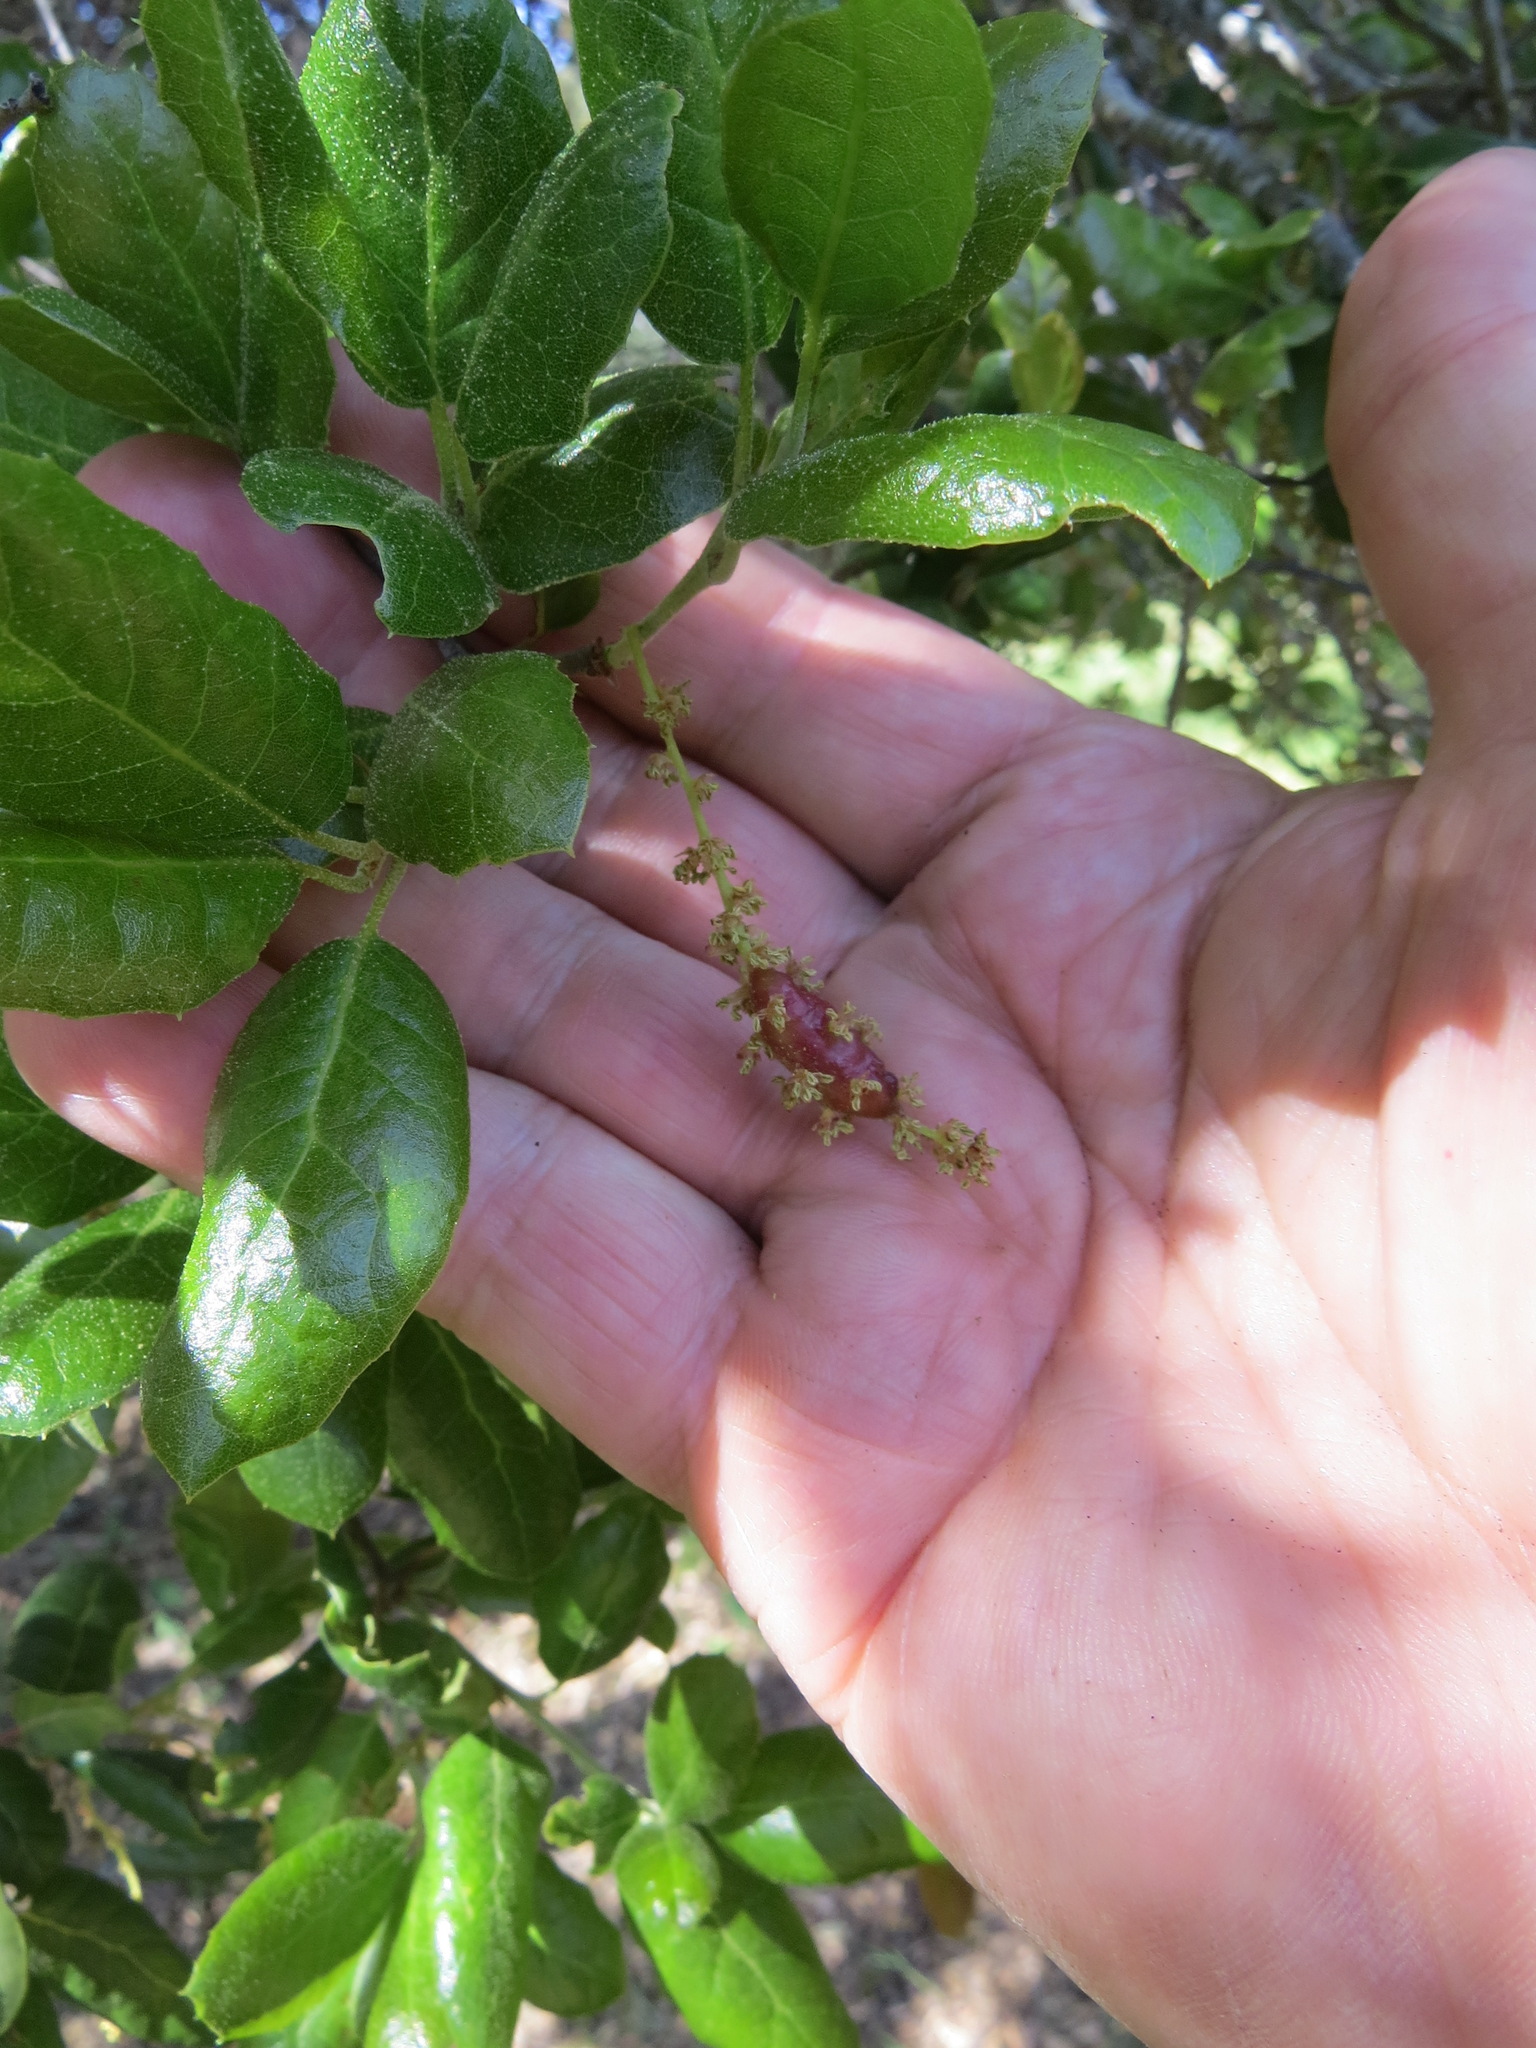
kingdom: Animalia
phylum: Arthropoda
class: Insecta
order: Hymenoptera
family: Cynipidae
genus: Callirhytis
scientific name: Callirhytis
